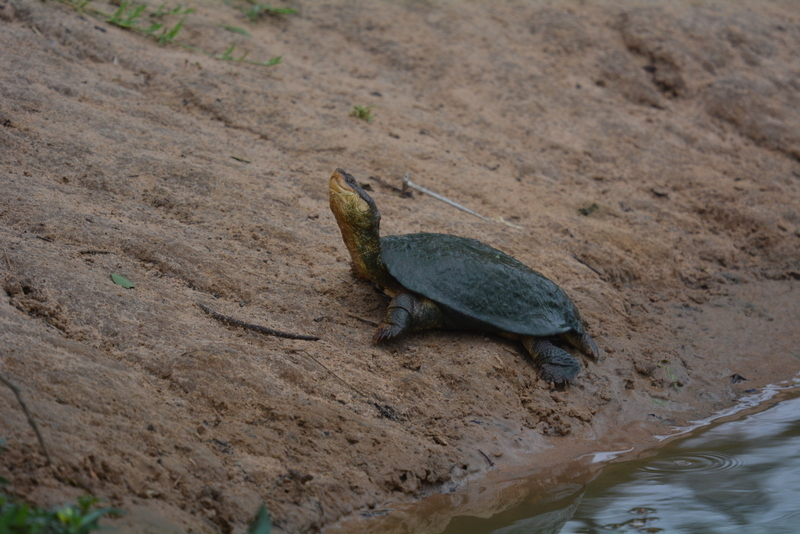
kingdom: Animalia
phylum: Chordata
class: Testudines
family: Pelomedusidae
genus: Pelomedusa
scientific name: Pelomedusa galeata
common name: South african helmeted terrapin
